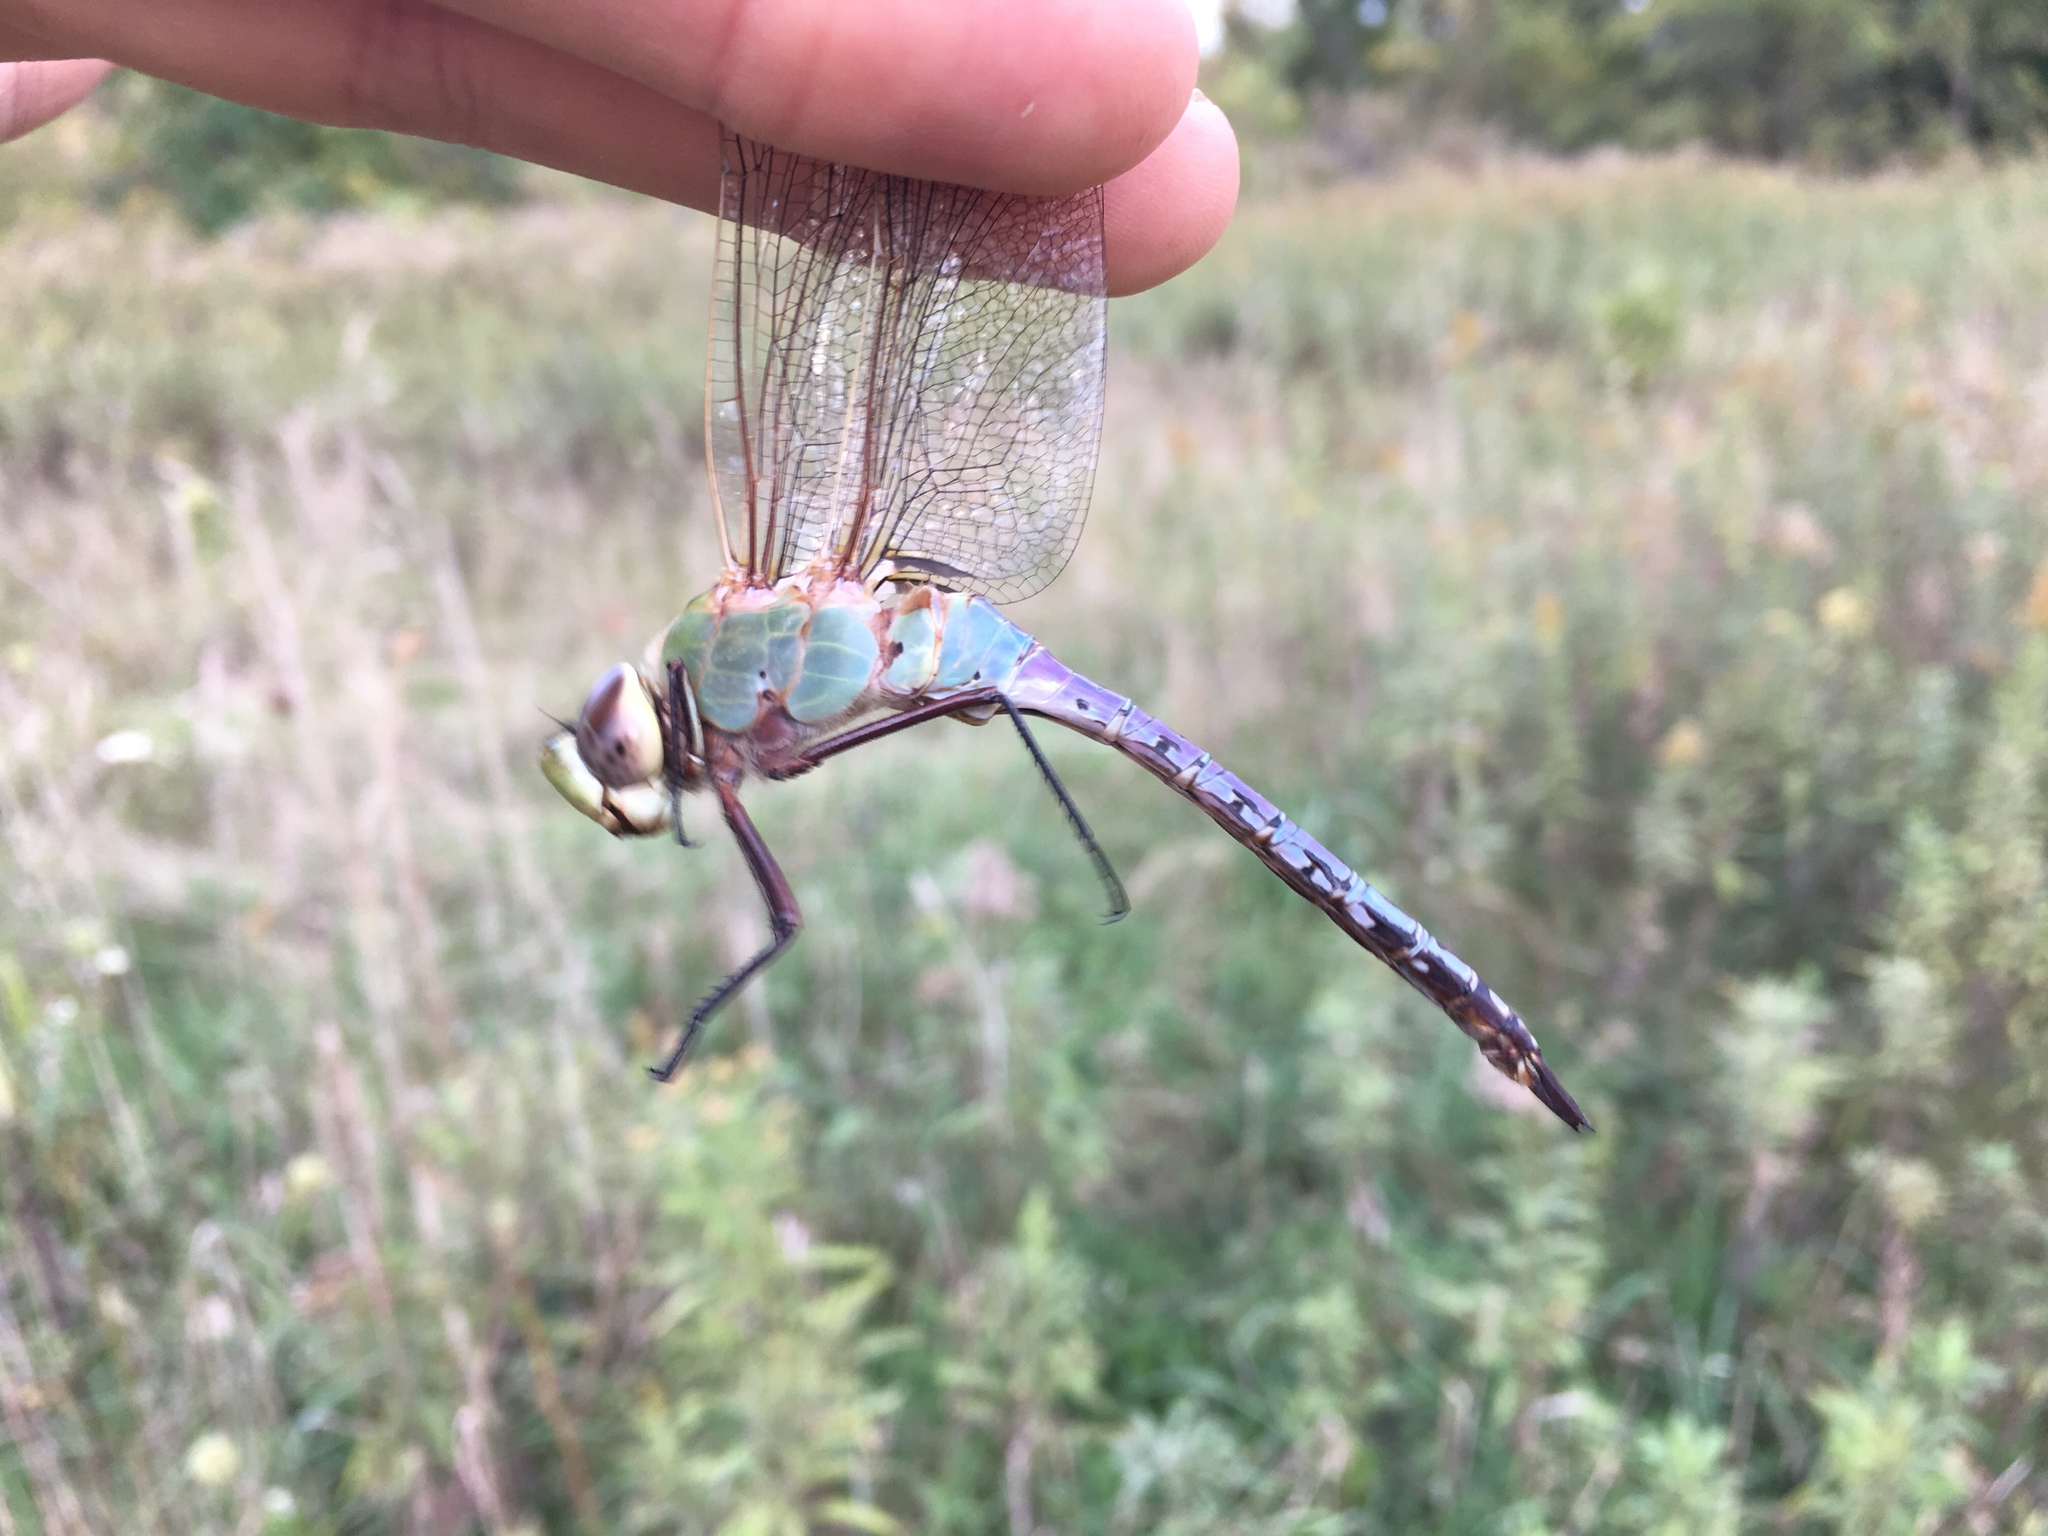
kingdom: Animalia
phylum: Arthropoda
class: Insecta
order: Odonata
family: Aeshnidae
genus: Anax
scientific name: Anax junius
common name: Common green darner
